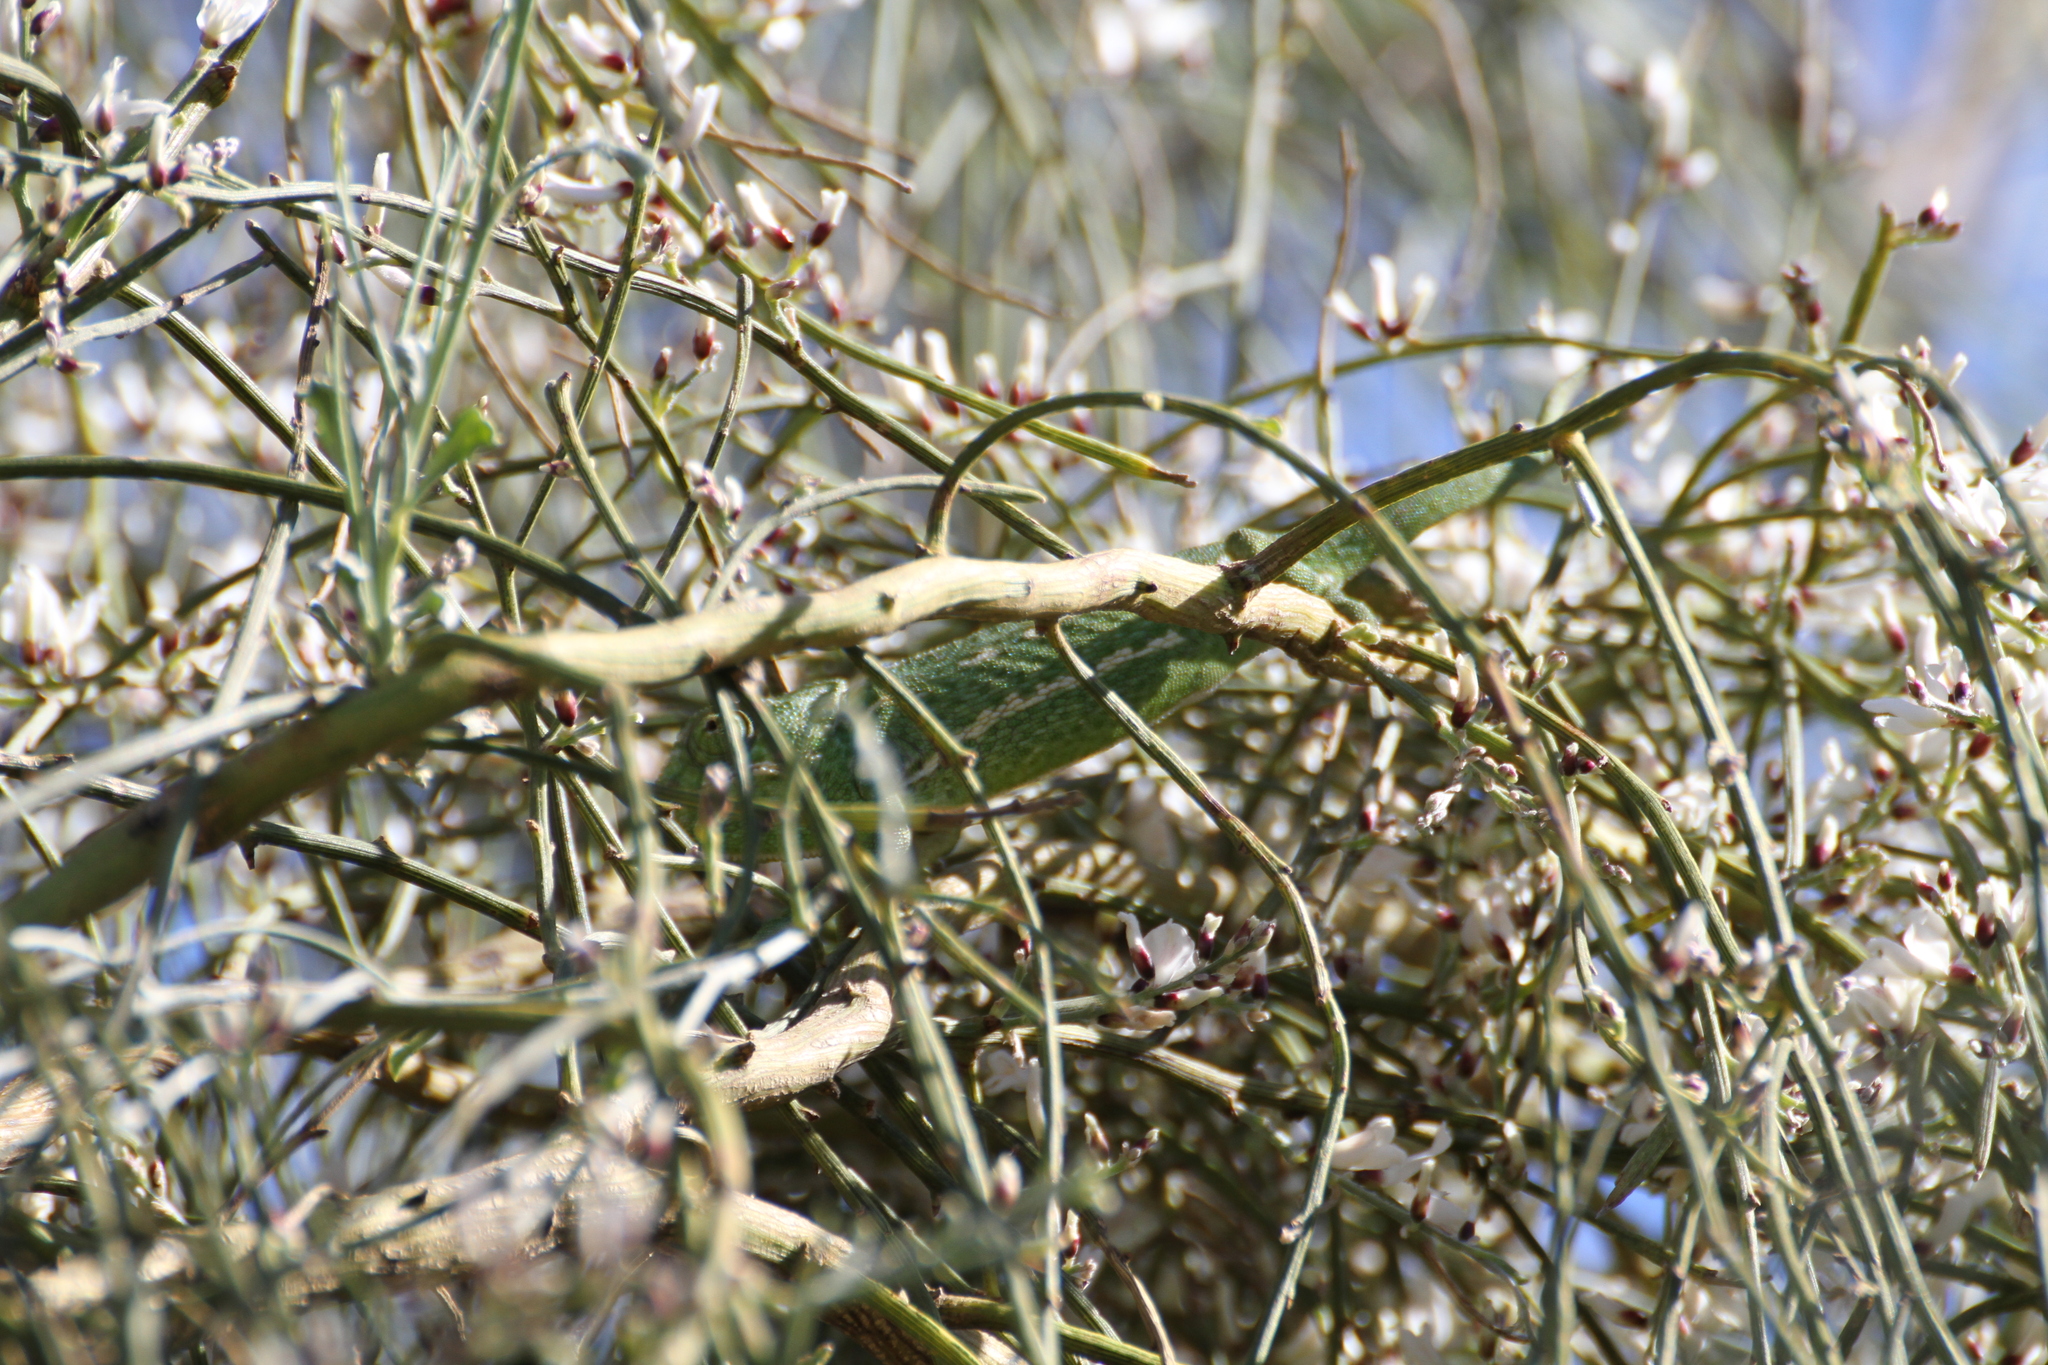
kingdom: Animalia
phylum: Chordata
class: Squamata
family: Chamaeleonidae
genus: Chamaeleo
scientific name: Chamaeleo chamaeleon
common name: Mediterranean chameleon
